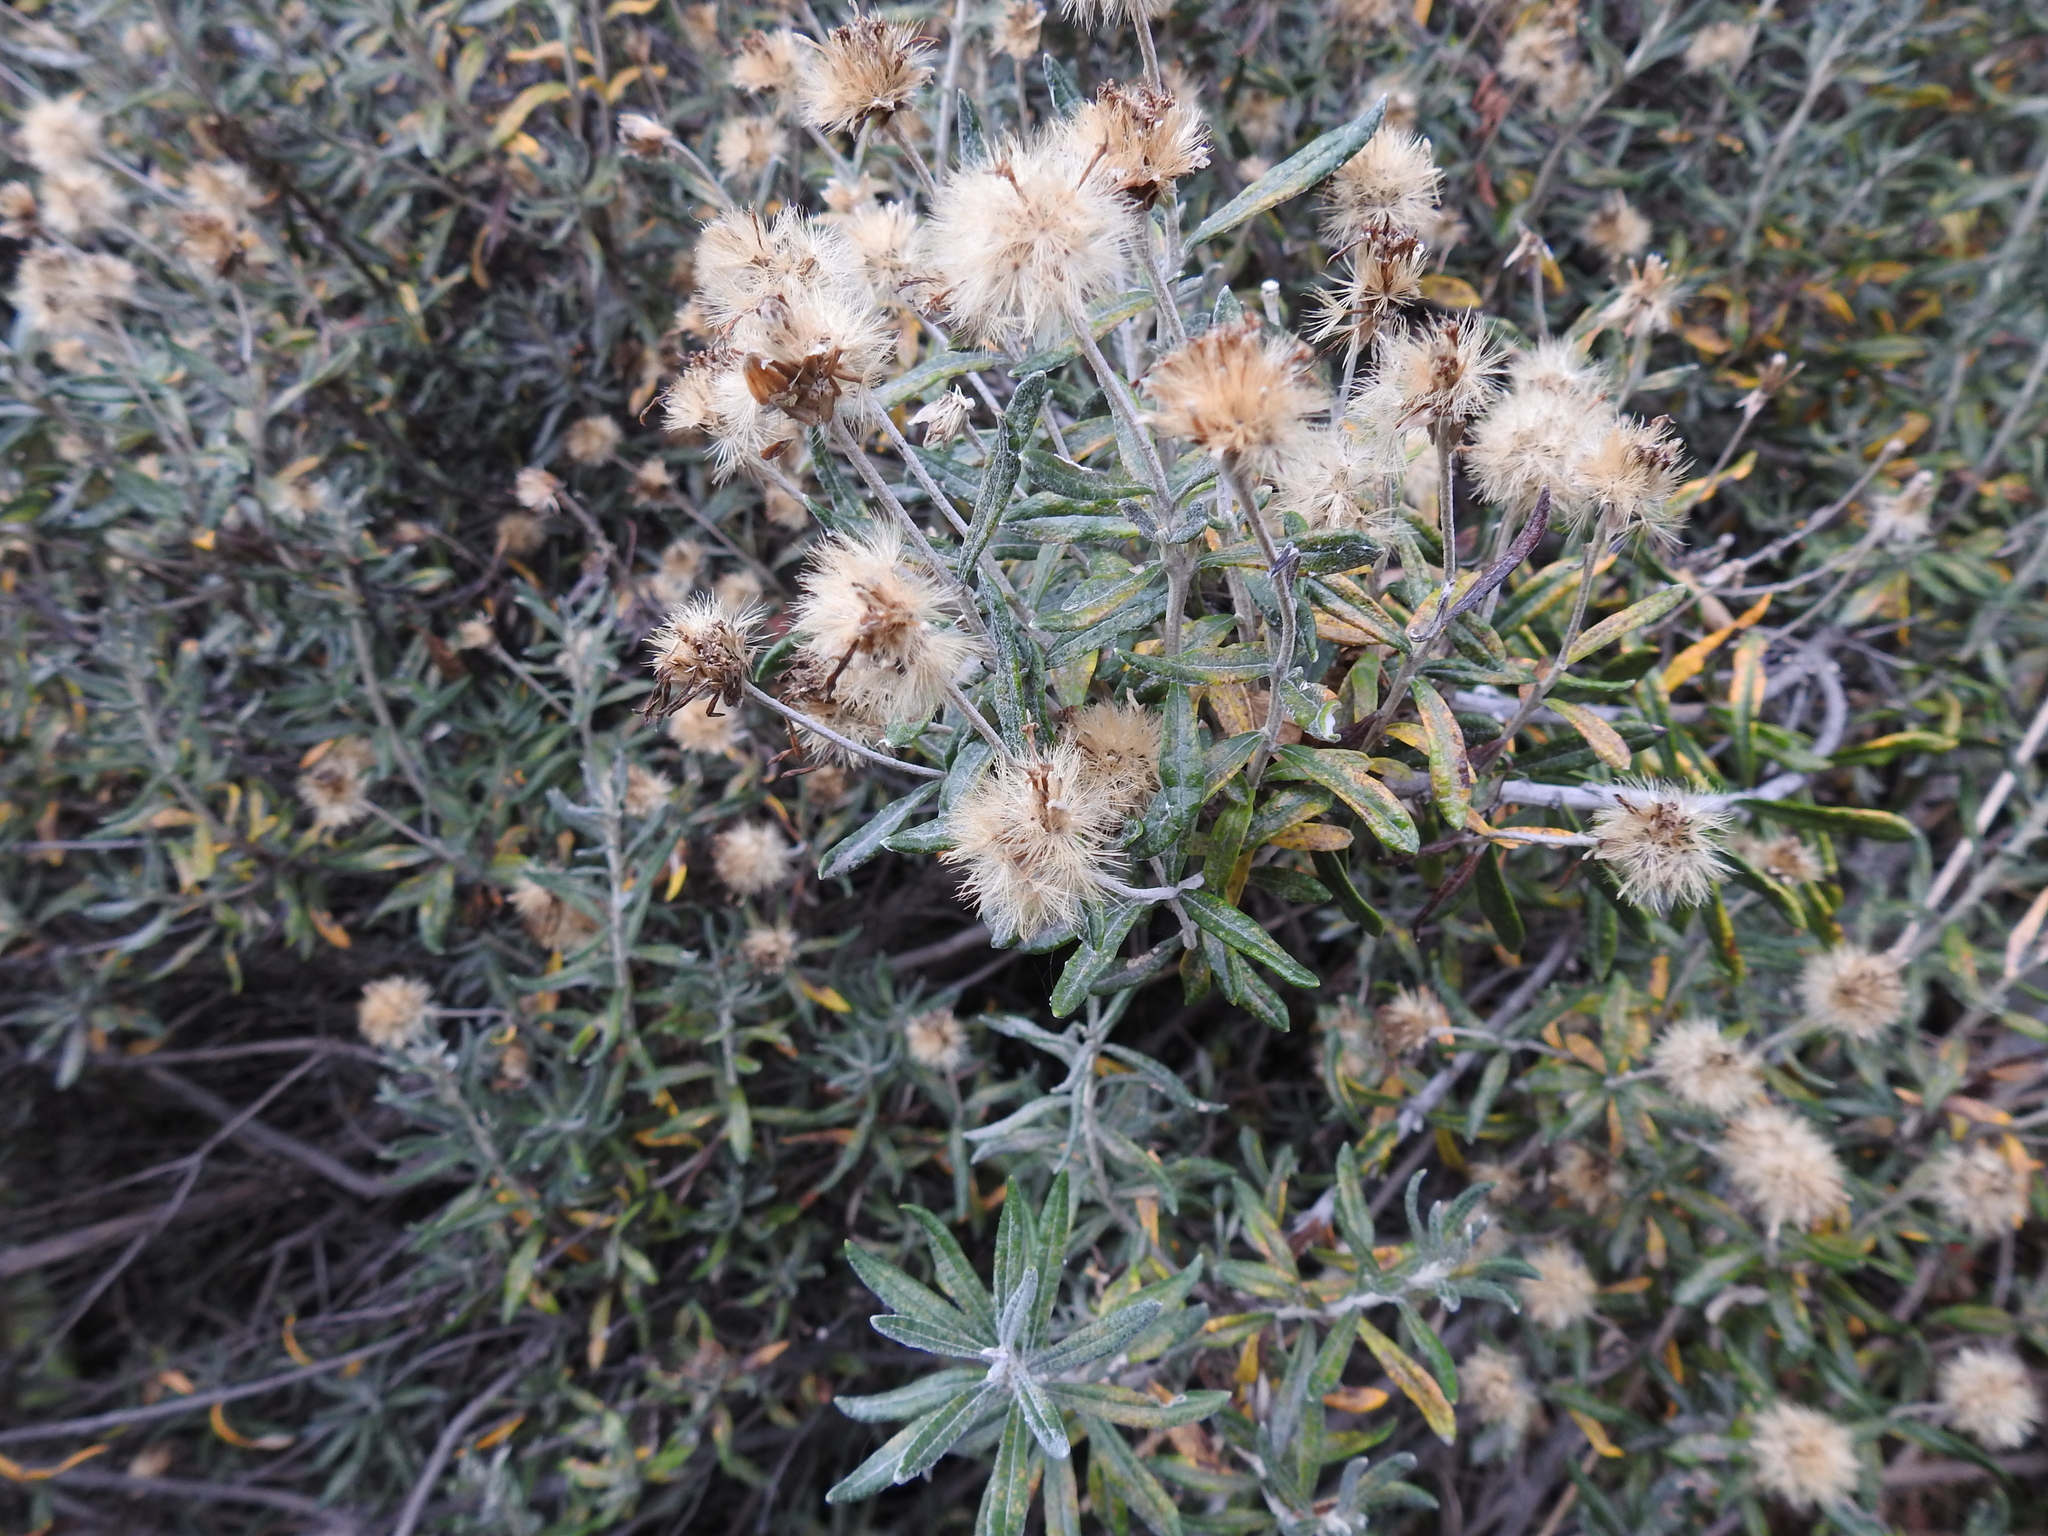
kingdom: Plantae
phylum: Tracheophyta
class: Magnoliopsida
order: Asterales
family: Asteraceae
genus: Chiliotrichum
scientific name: Chiliotrichum diffusum
